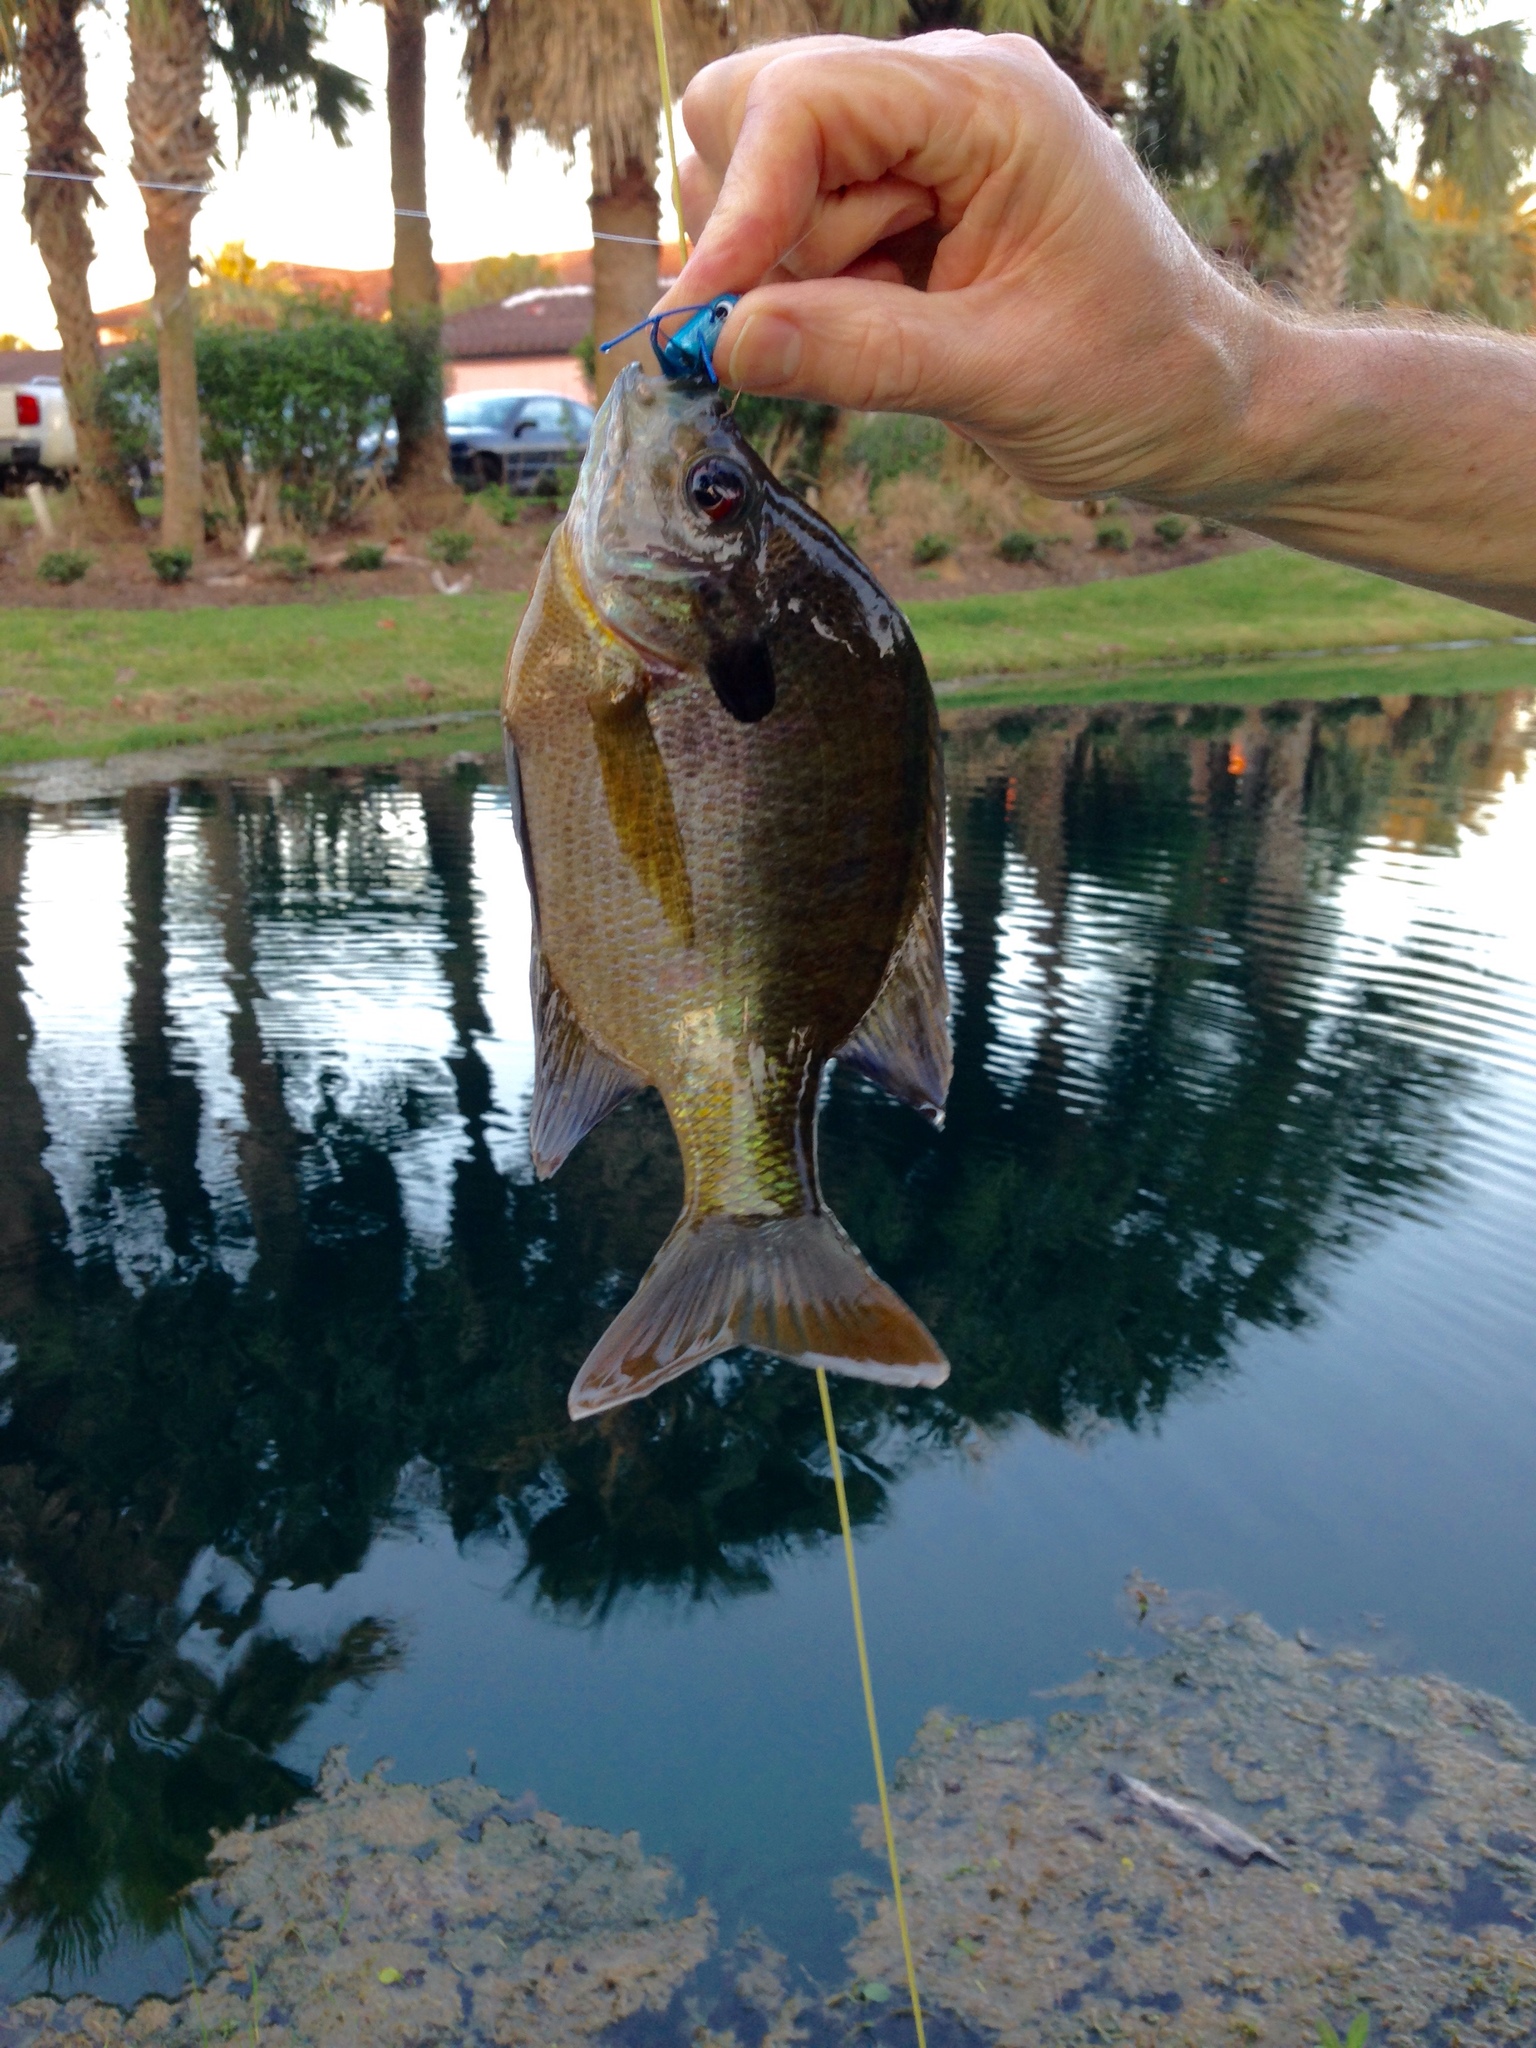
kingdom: Animalia
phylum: Chordata
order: Perciformes
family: Centrarchidae
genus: Lepomis
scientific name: Lepomis macrochirus
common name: Bluegill
